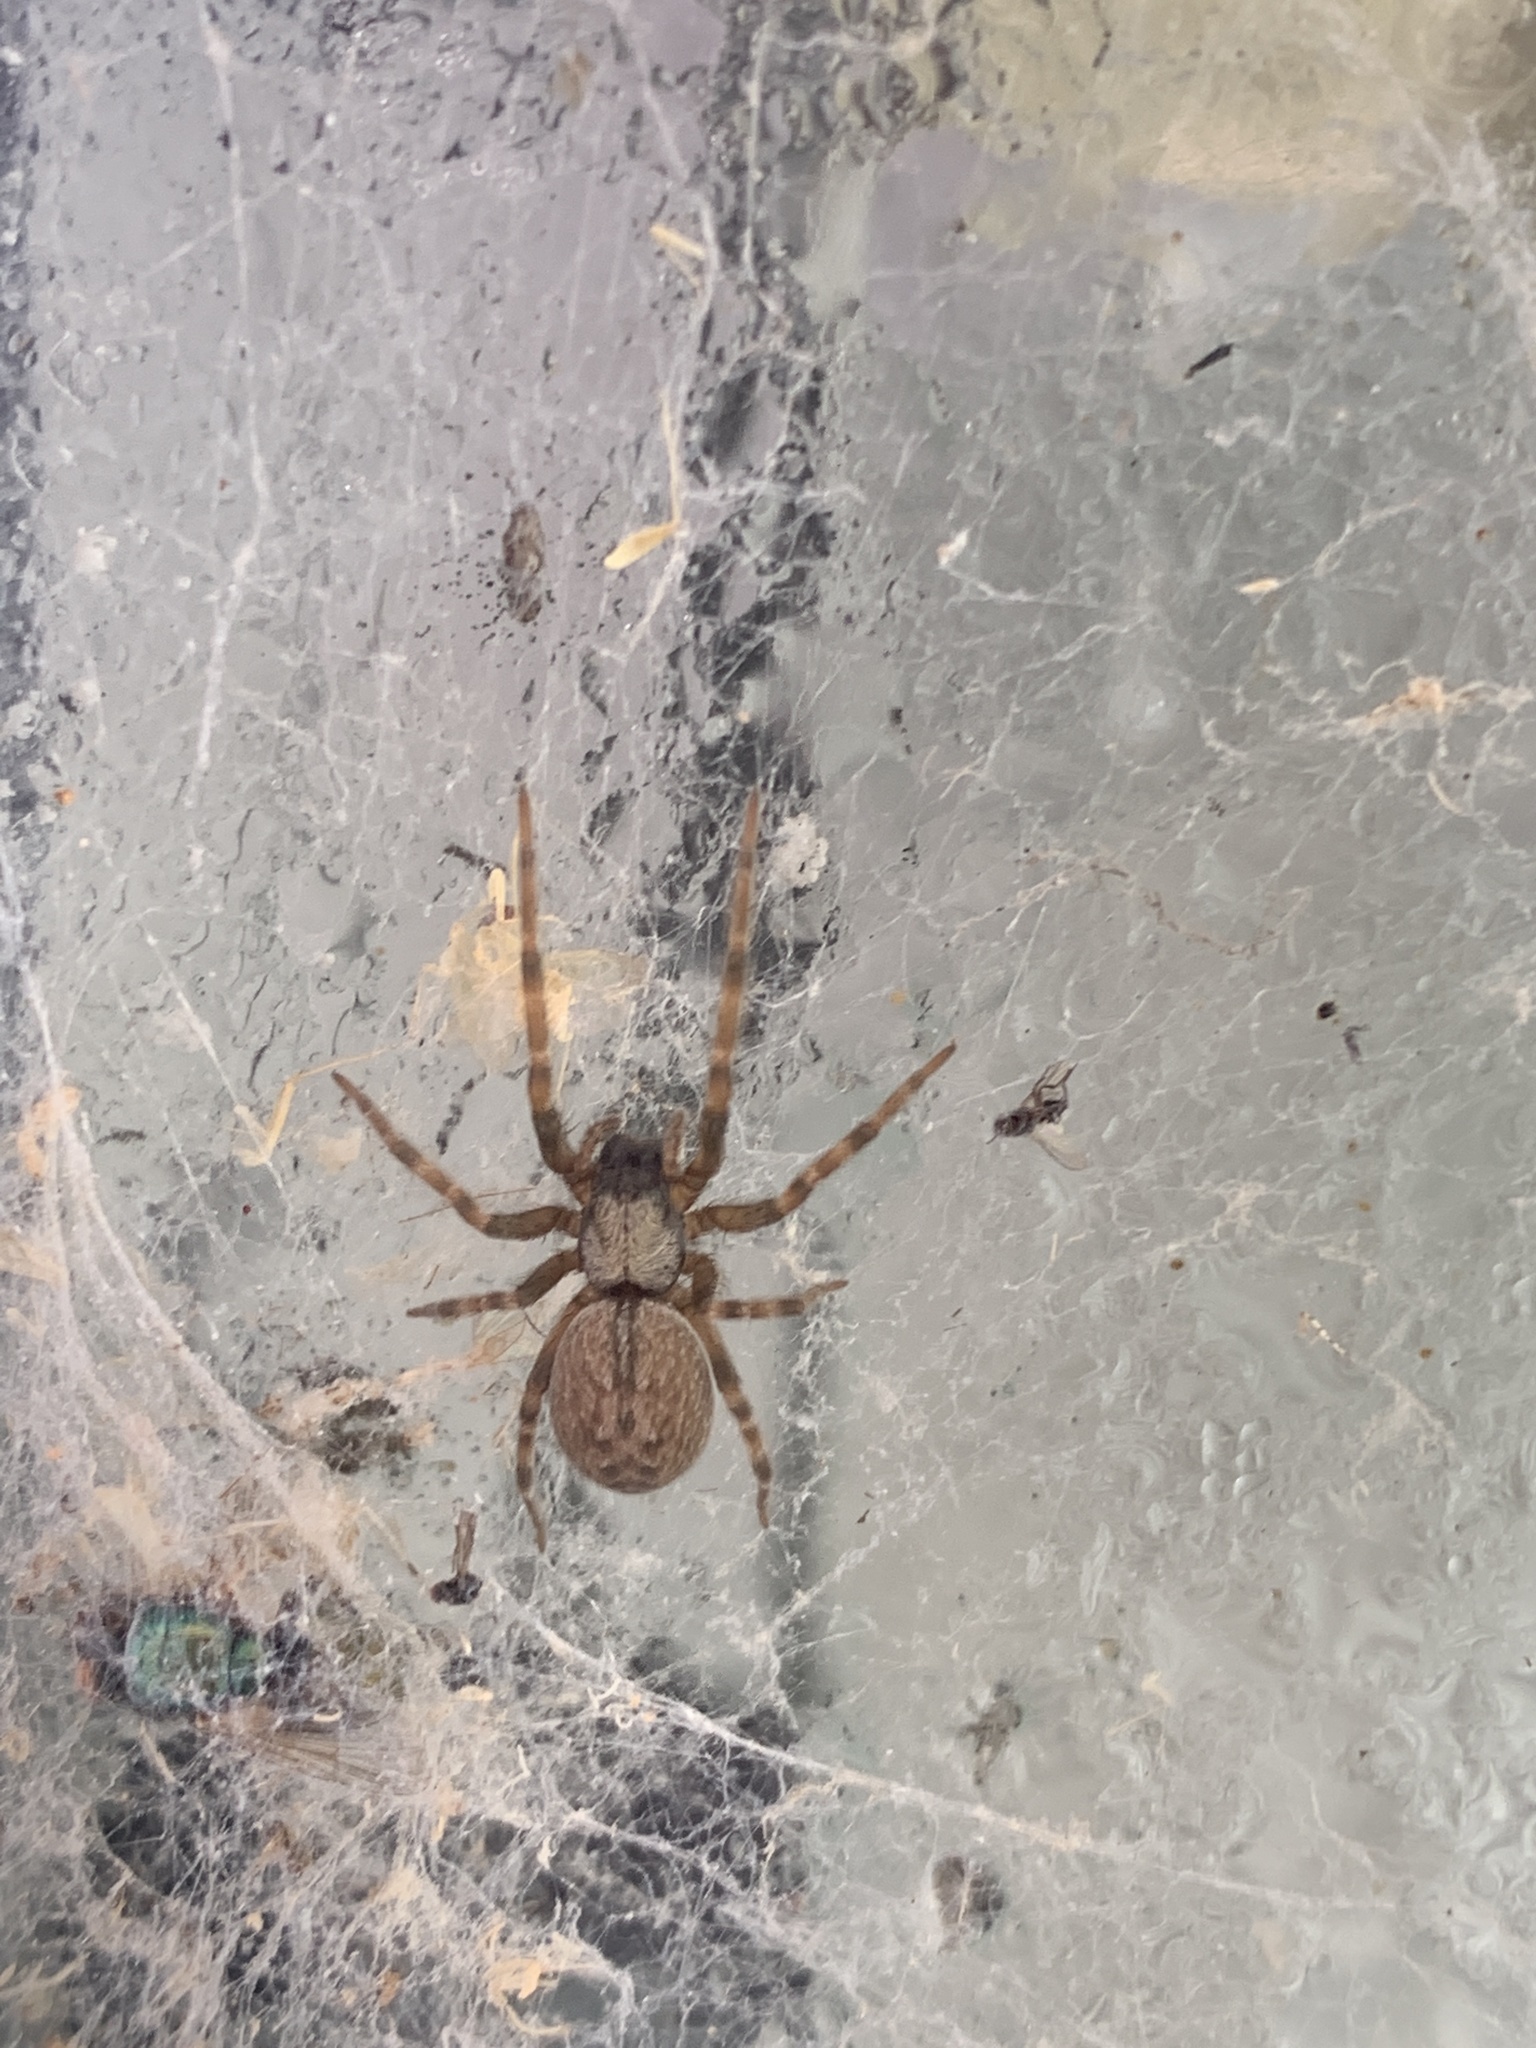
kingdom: Animalia
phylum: Arthropoda
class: Arachnida
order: Araneae
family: Desidae
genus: Badumna
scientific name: Badumna longinqua
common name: Gray house spider
